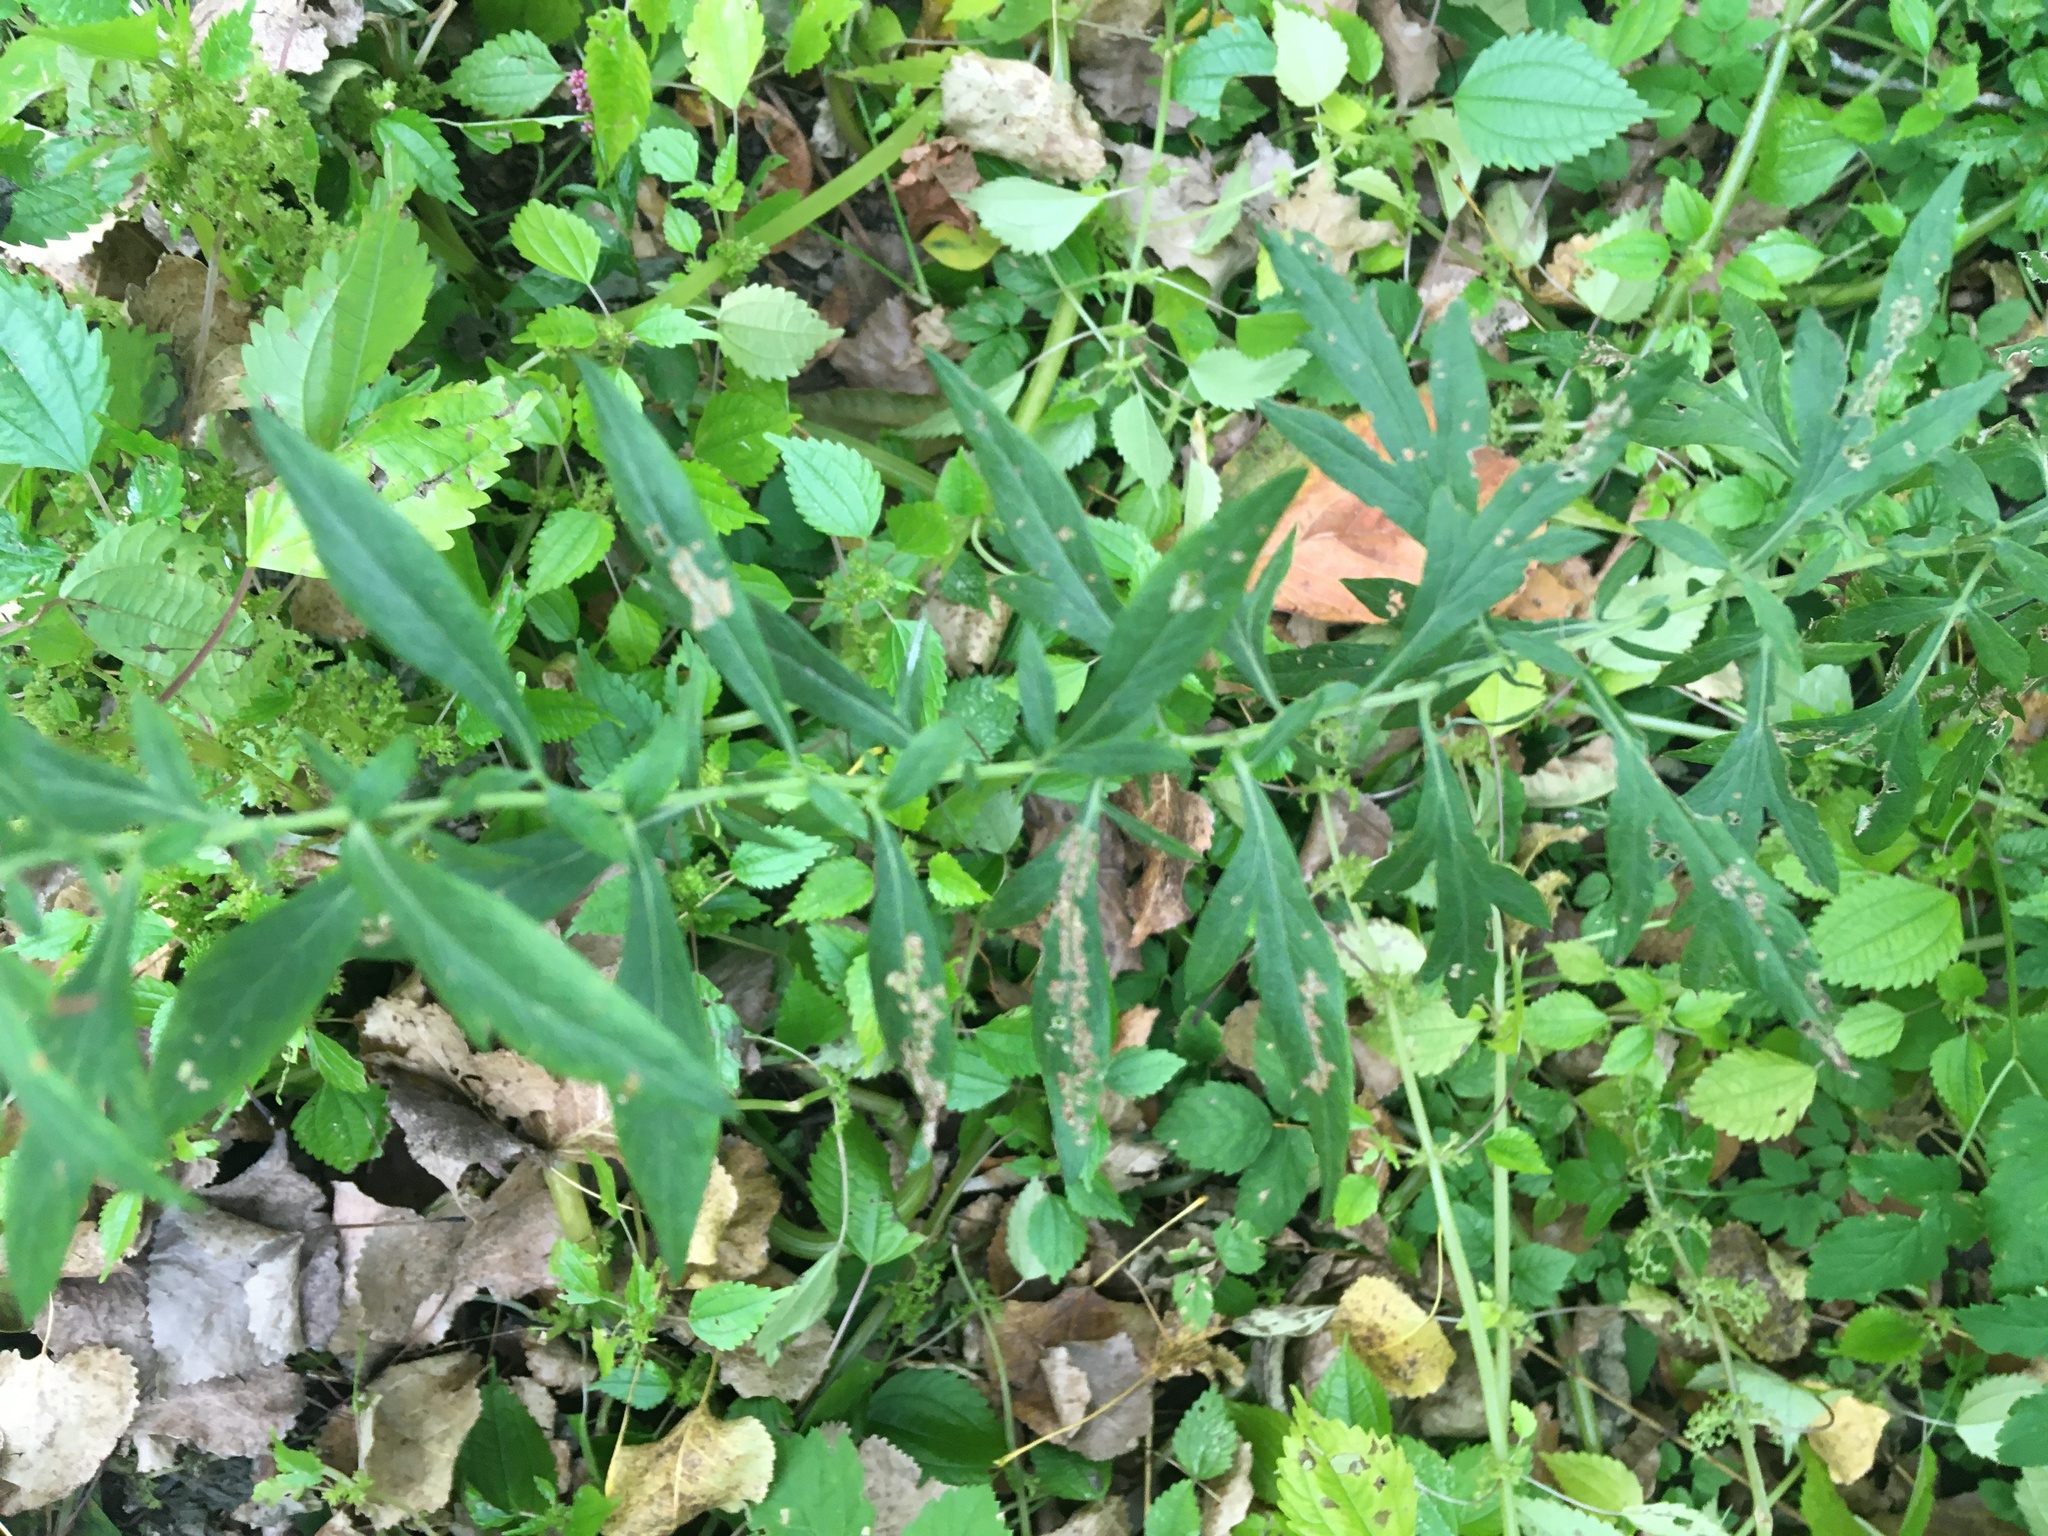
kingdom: Plantae
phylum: Tracheophyta
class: Magnoliopsida
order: Asterales
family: Asteraceae
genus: Artemisia
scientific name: Artemisia vulgaris
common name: Mugwort
